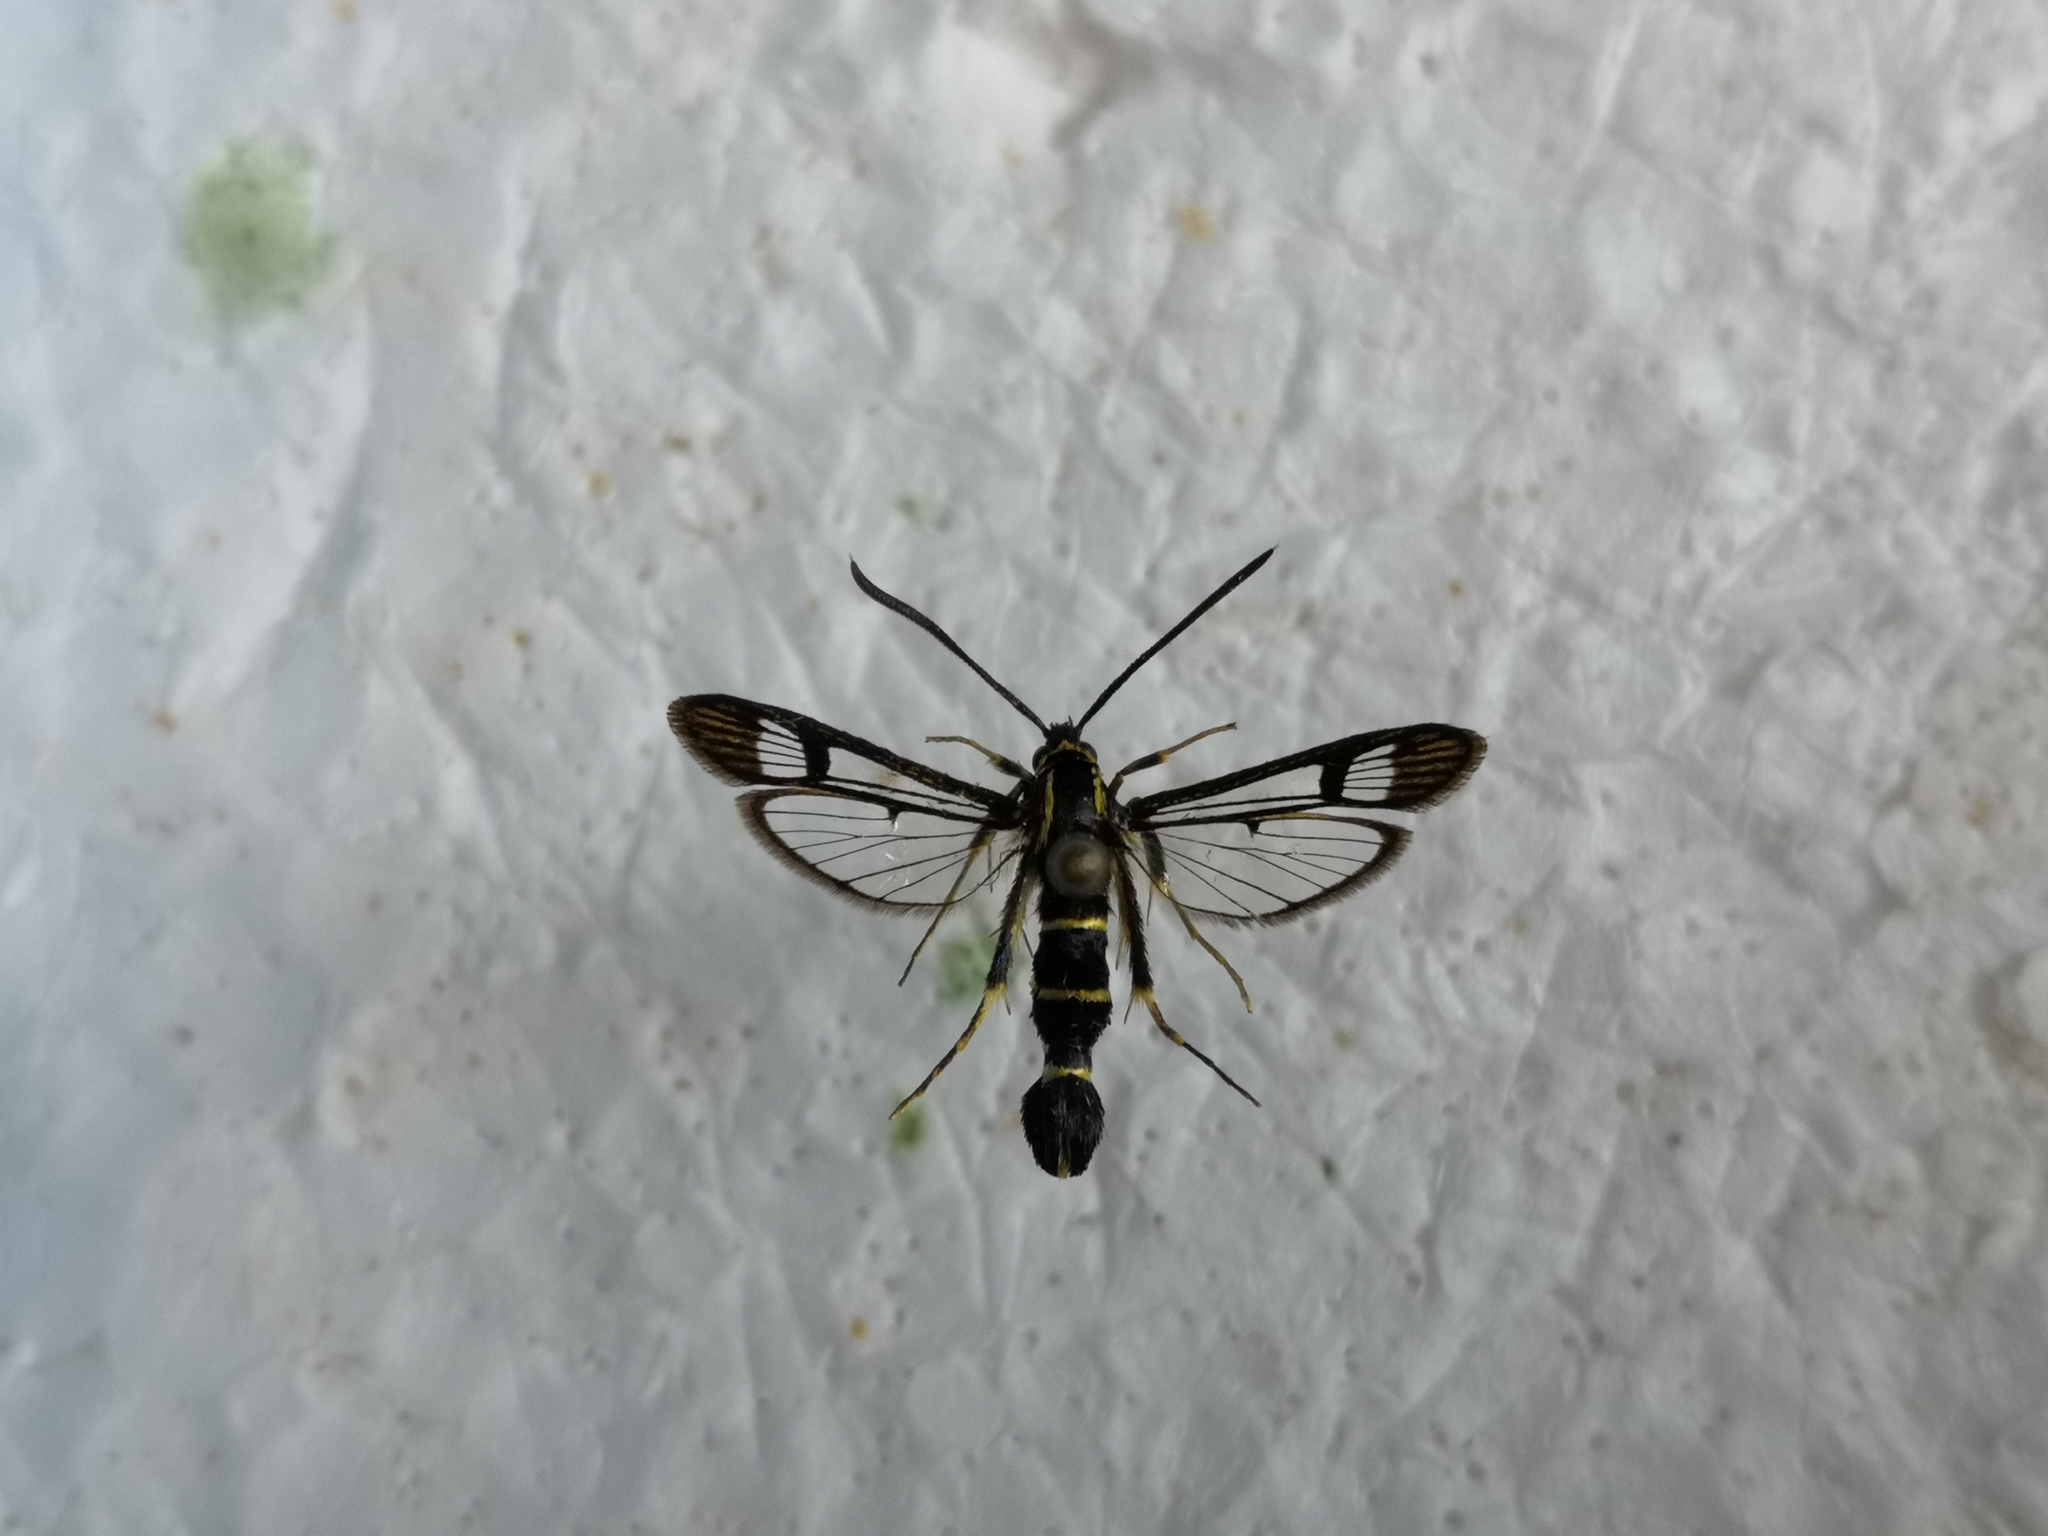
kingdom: Animalia
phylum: Arthropoda
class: Insecta
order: Lepidoptera
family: Sesiidae
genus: Synanthedon
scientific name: Synanthedon cephiformis
